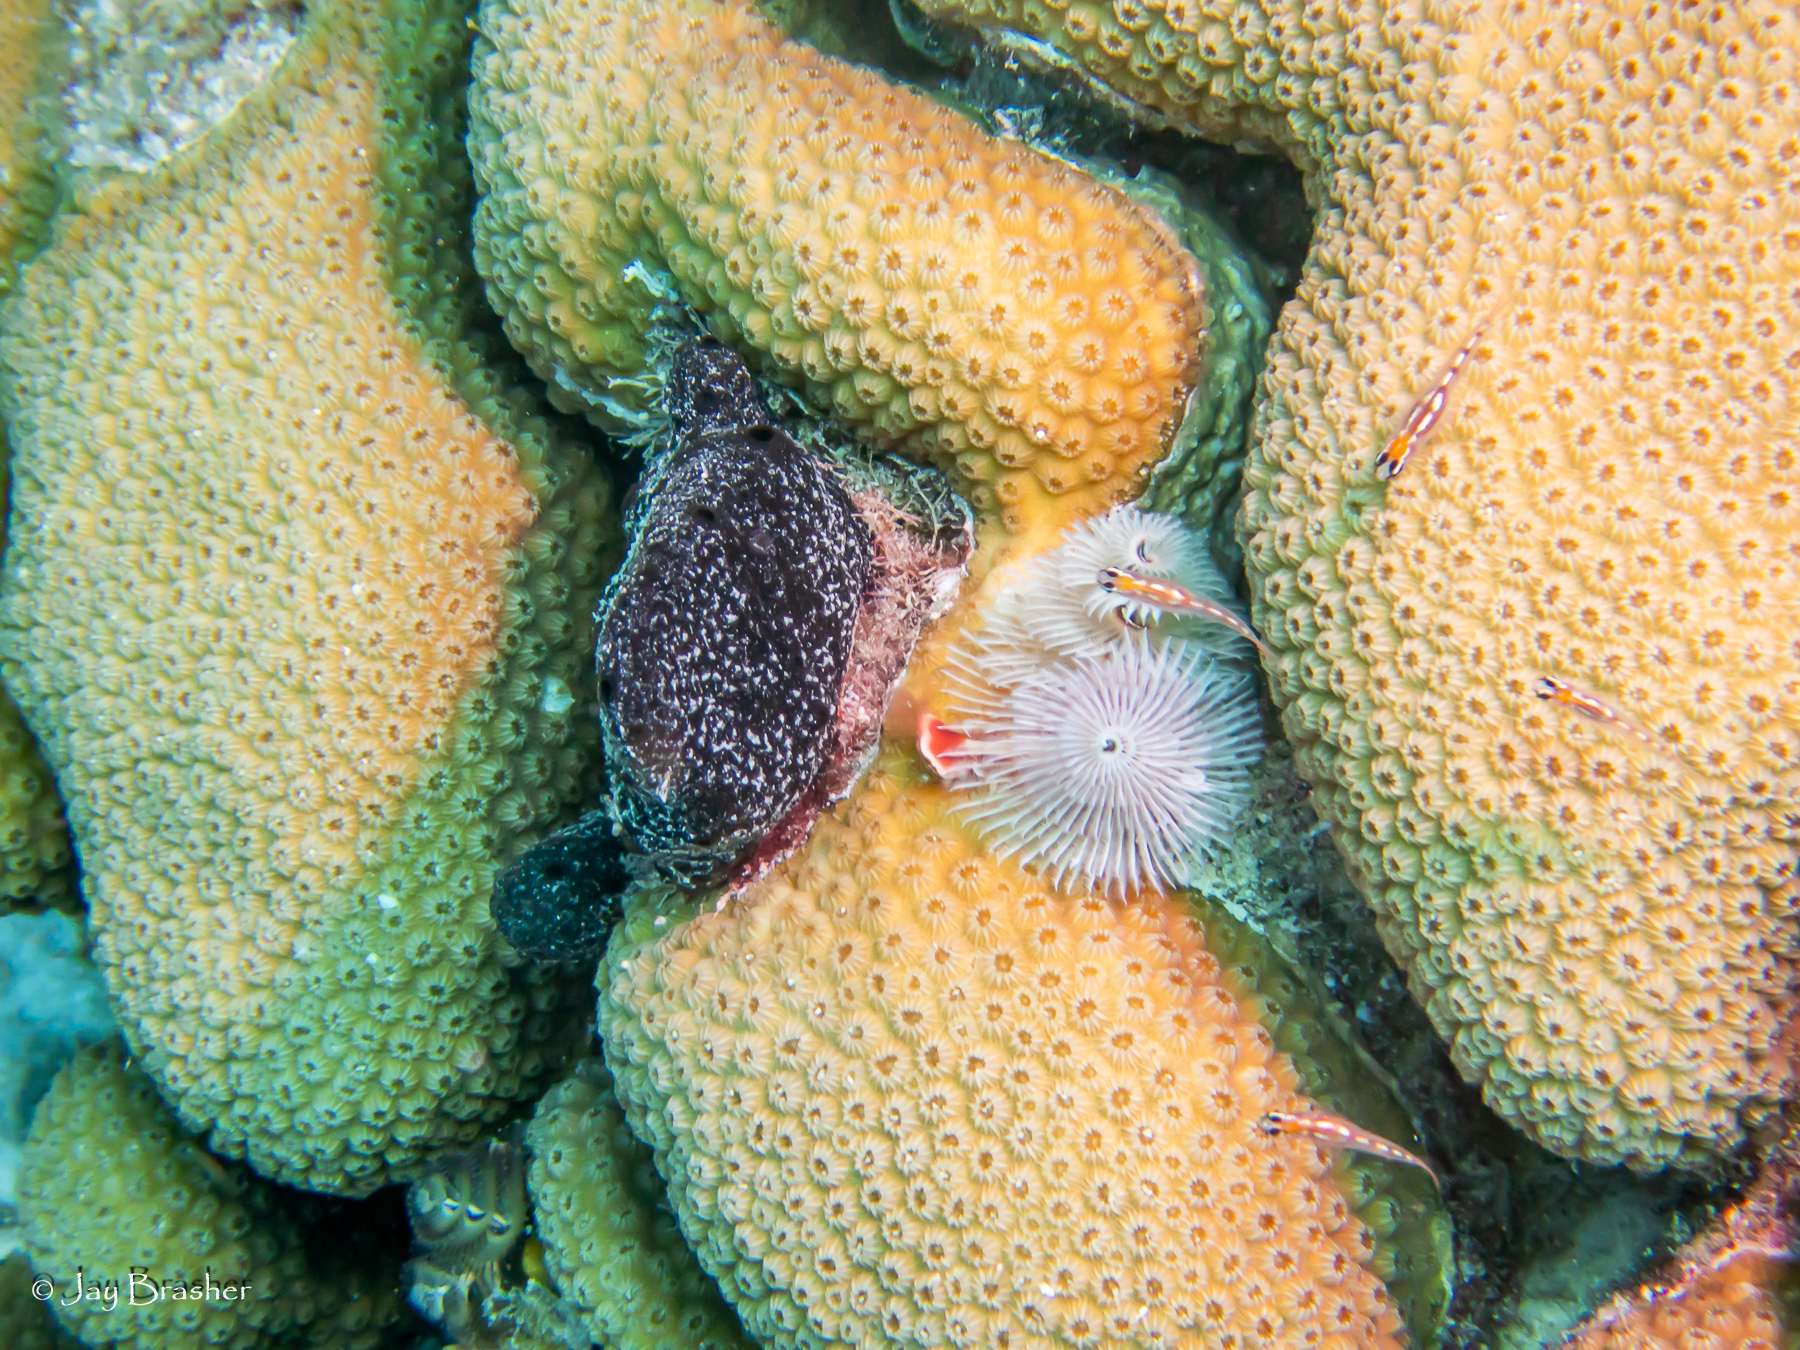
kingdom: Animalia
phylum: Annelida
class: Polychaeta
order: Sabellida
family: Serpulidae
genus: Spirobranchus
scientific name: Spirobranchus giganteus
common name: Christmas tree worm
